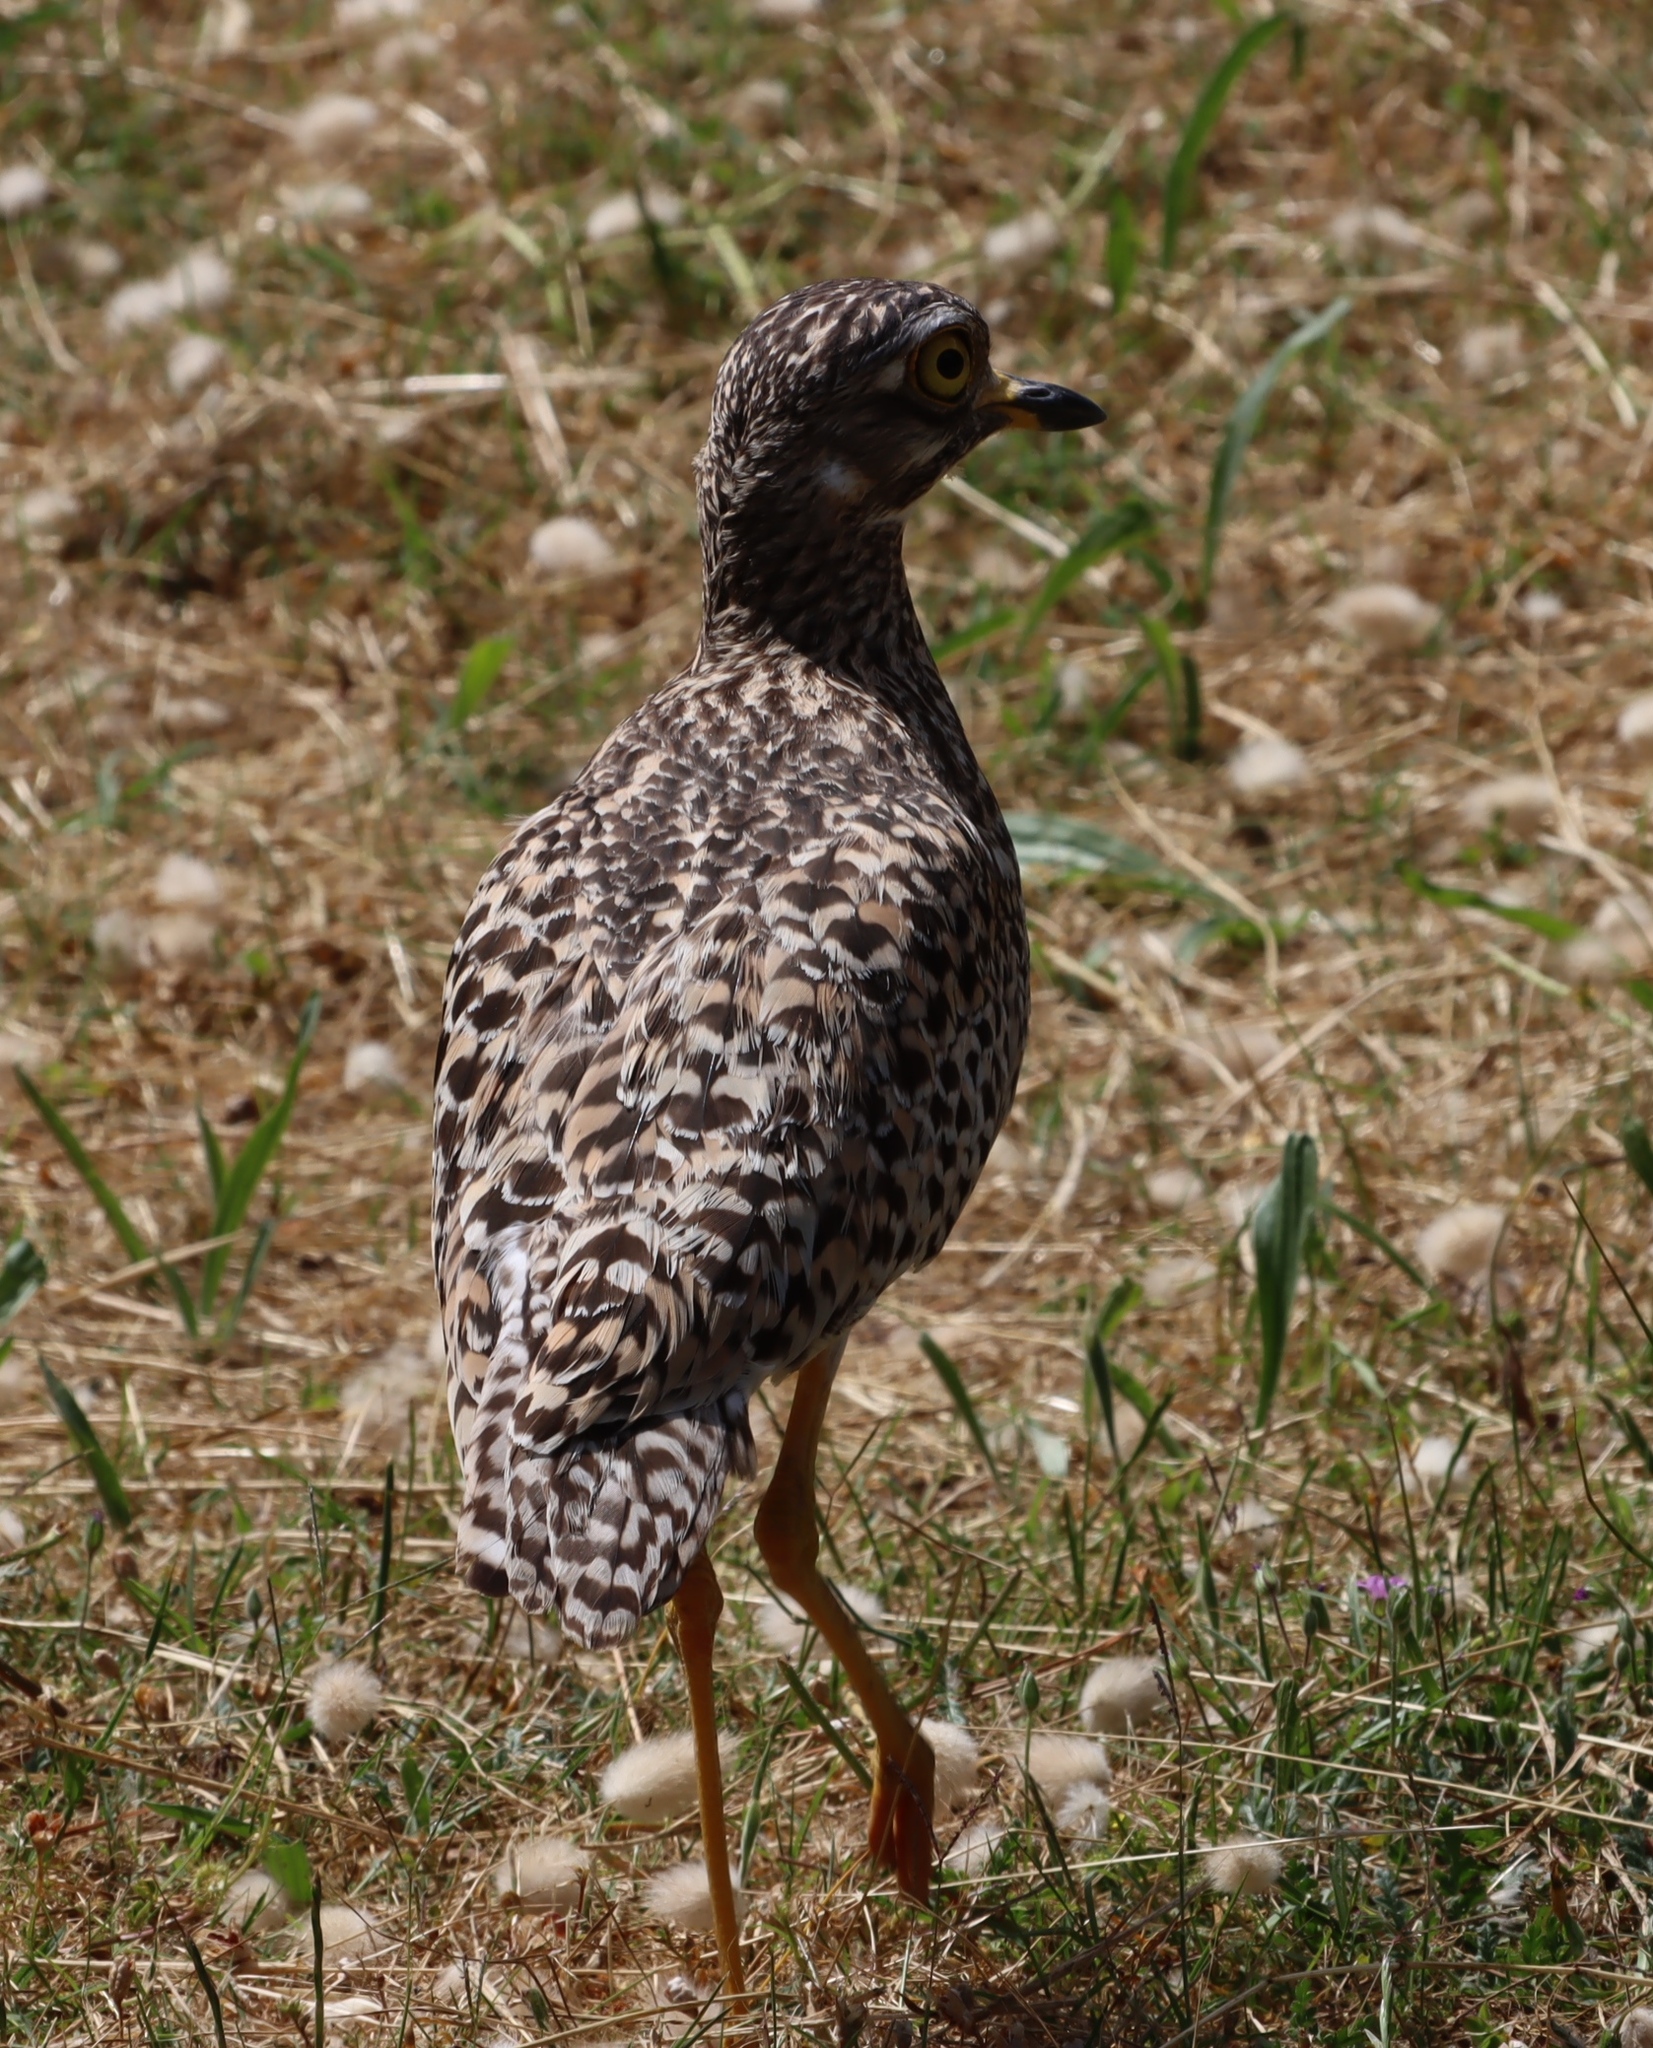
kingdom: Animalia
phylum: Chordata
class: Aves
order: Charadriiformes
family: Burhinidae
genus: Burhinus
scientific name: Burhinus capensis
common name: Spotted thick-knee
